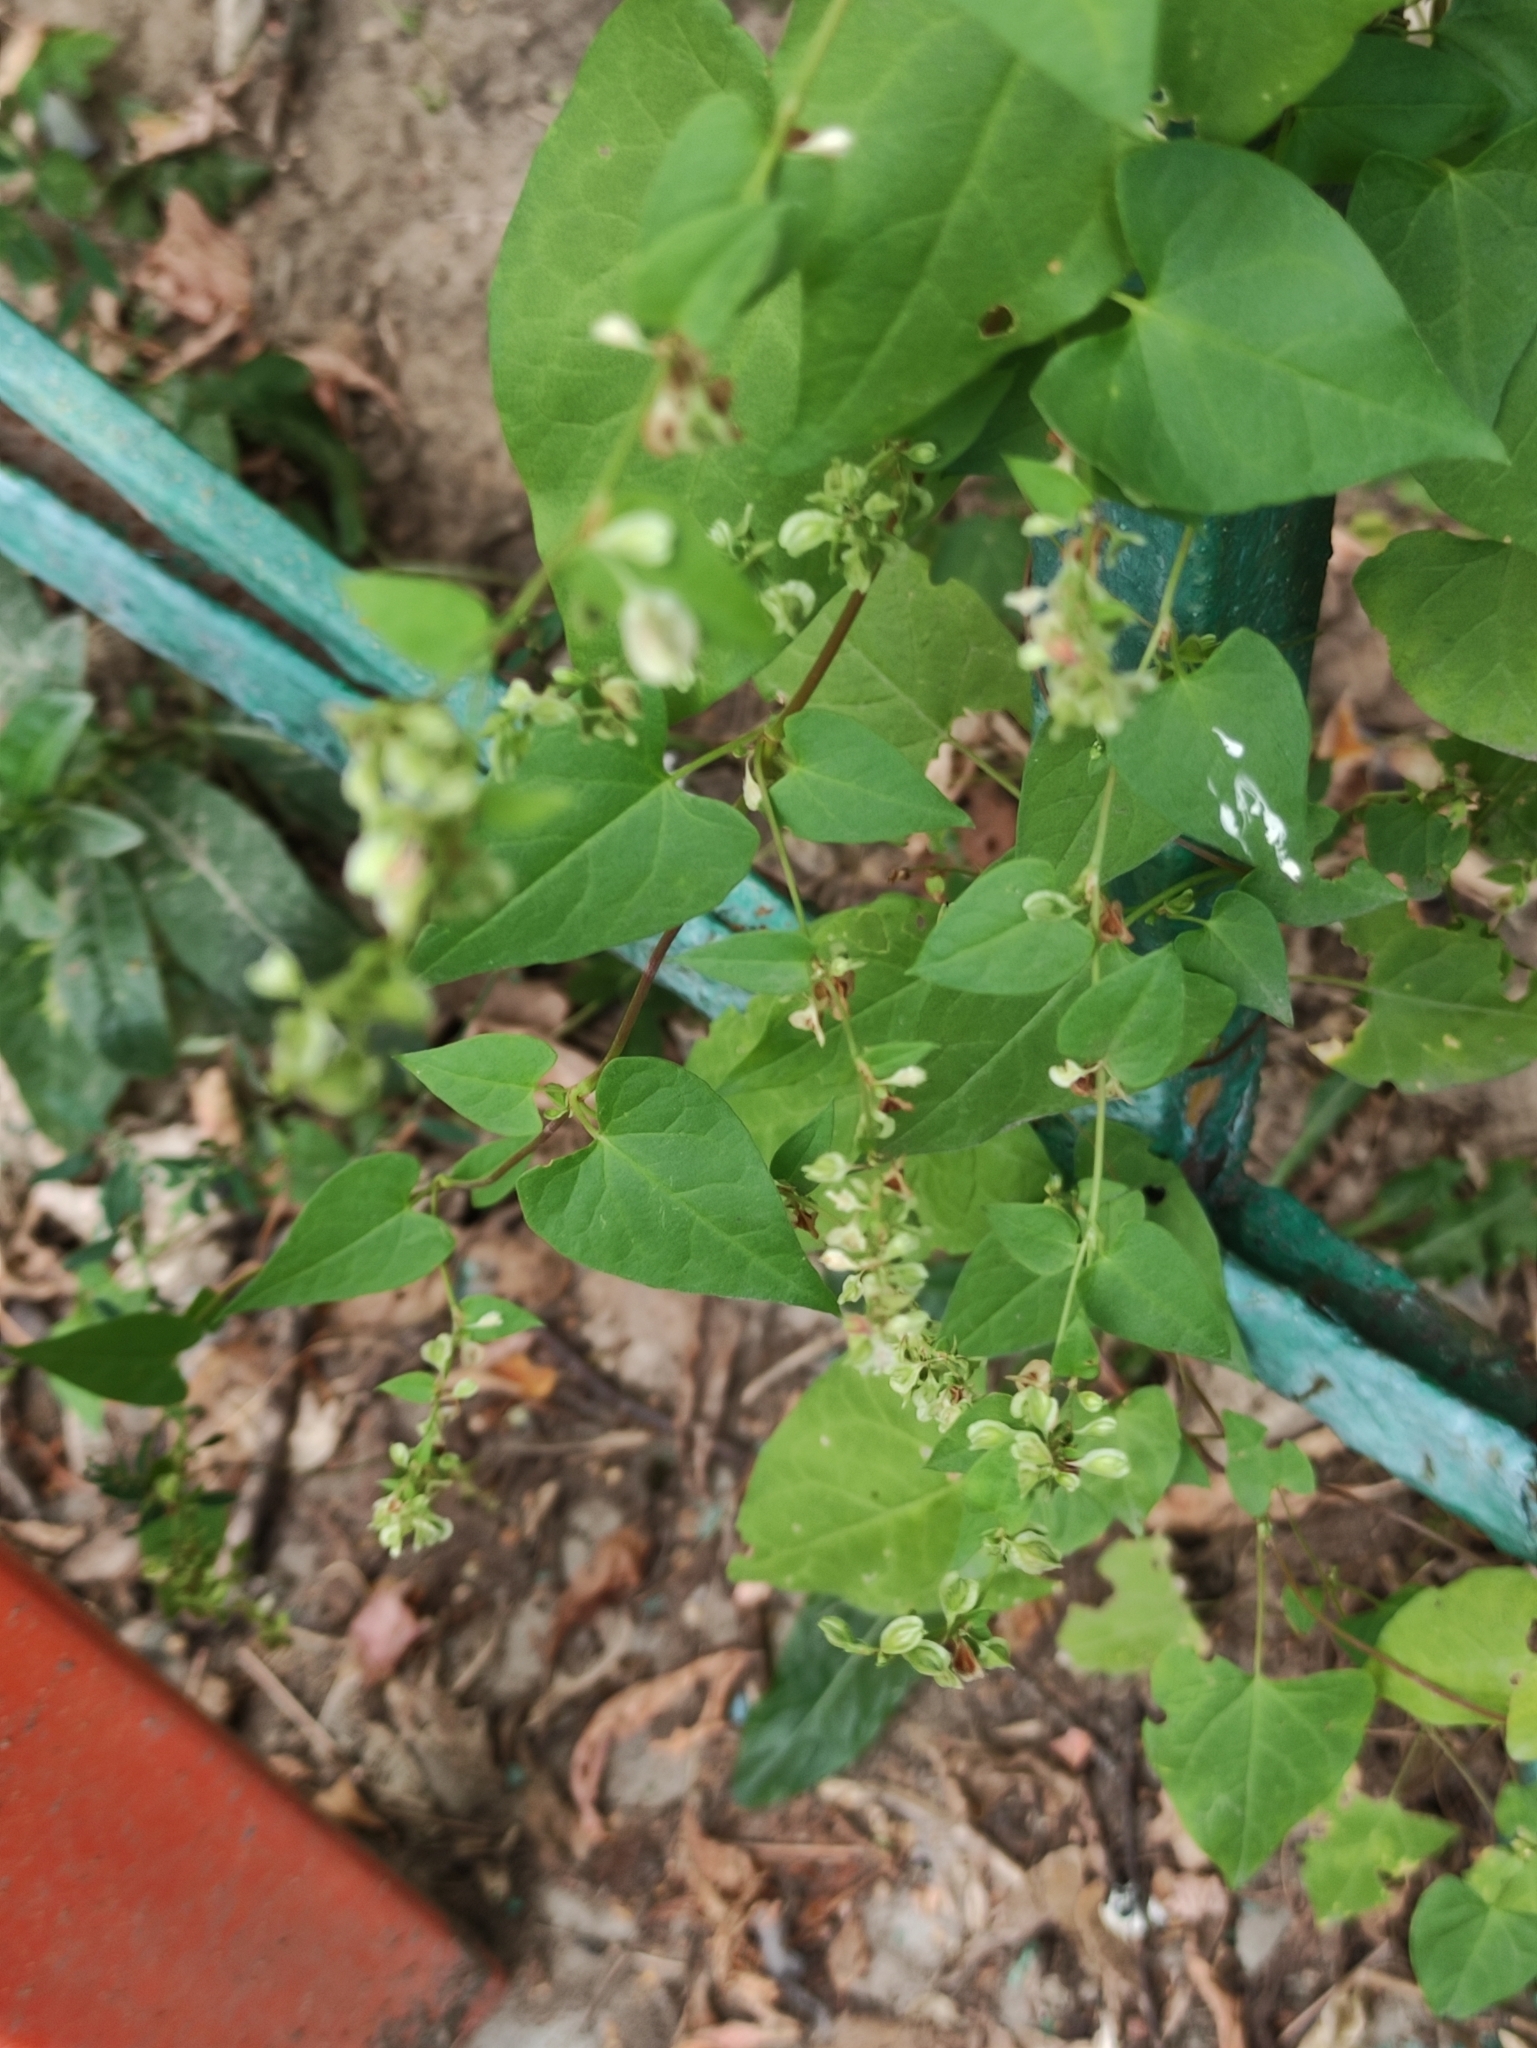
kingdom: Plantae
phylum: Tracheophyta
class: Magnoliopsida
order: Caryophyllales
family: Polygonaceae
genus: Fallopia
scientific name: Fallopia dumetorum
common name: Copse-bindweed
